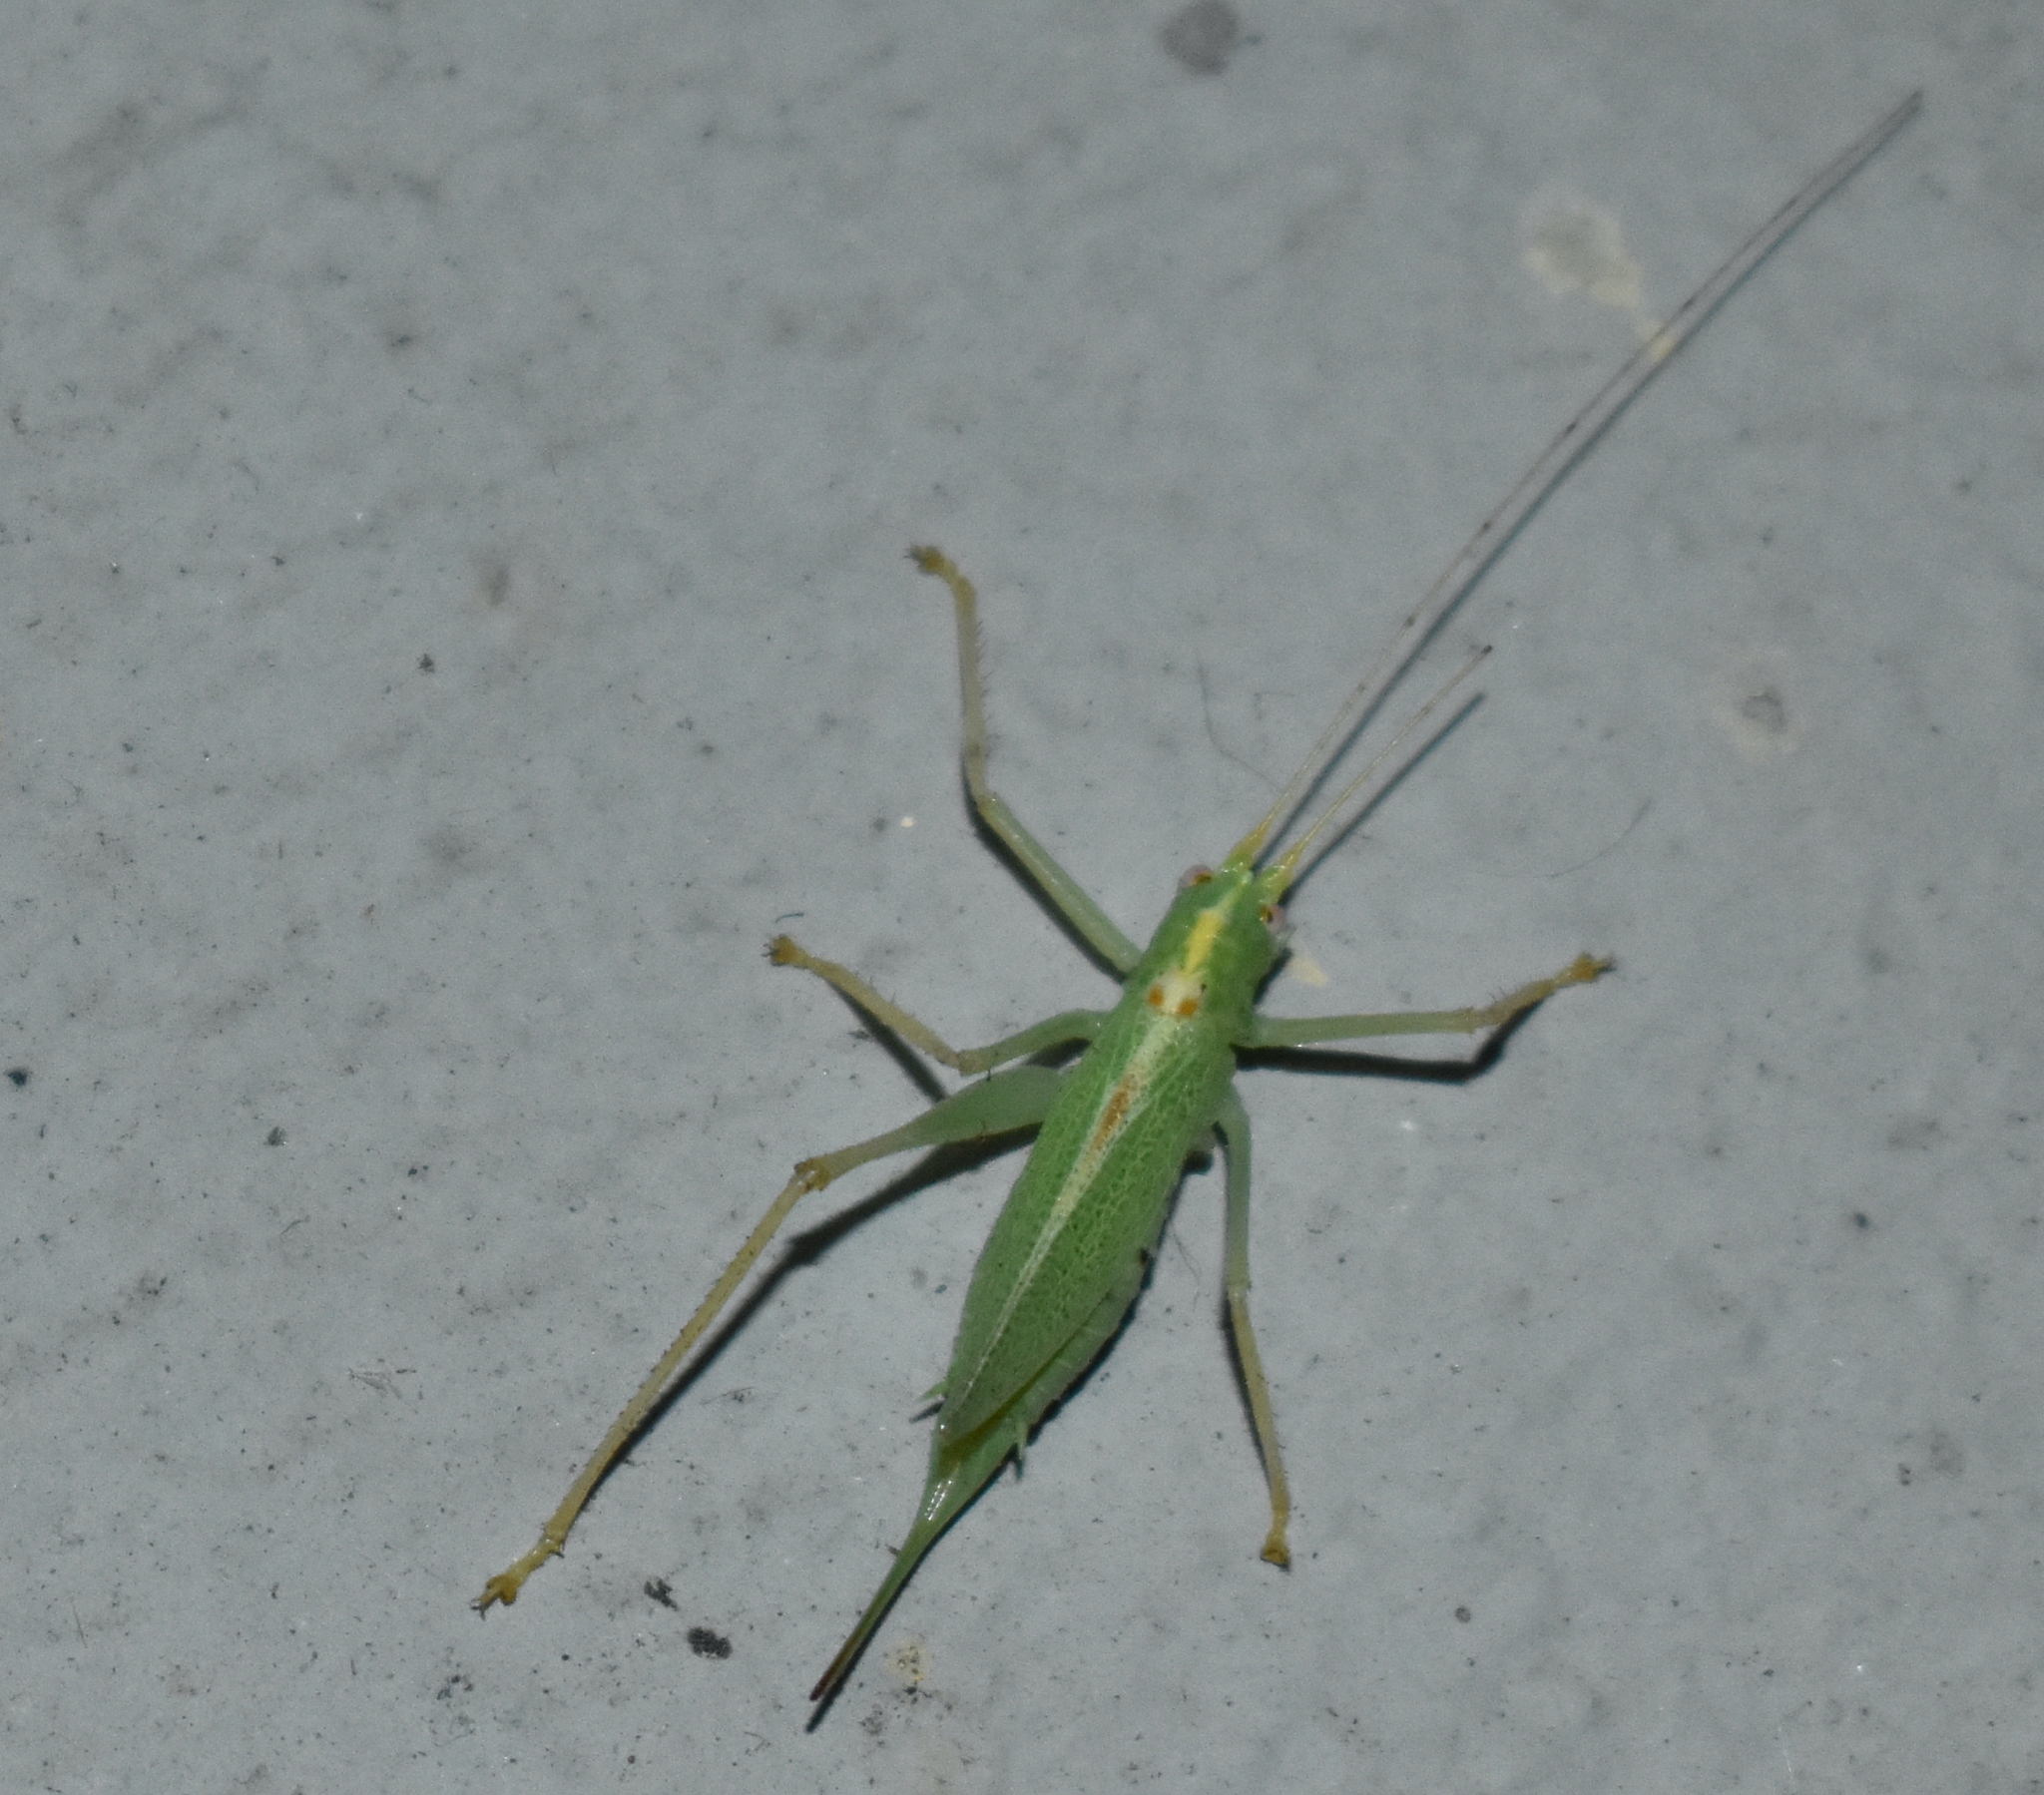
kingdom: Animalia
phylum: Arthropoda
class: Insecta
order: Orthoptera
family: Tettigoniidae
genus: Meconema
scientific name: Meconema thalassinum
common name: Oak bush-cricket
